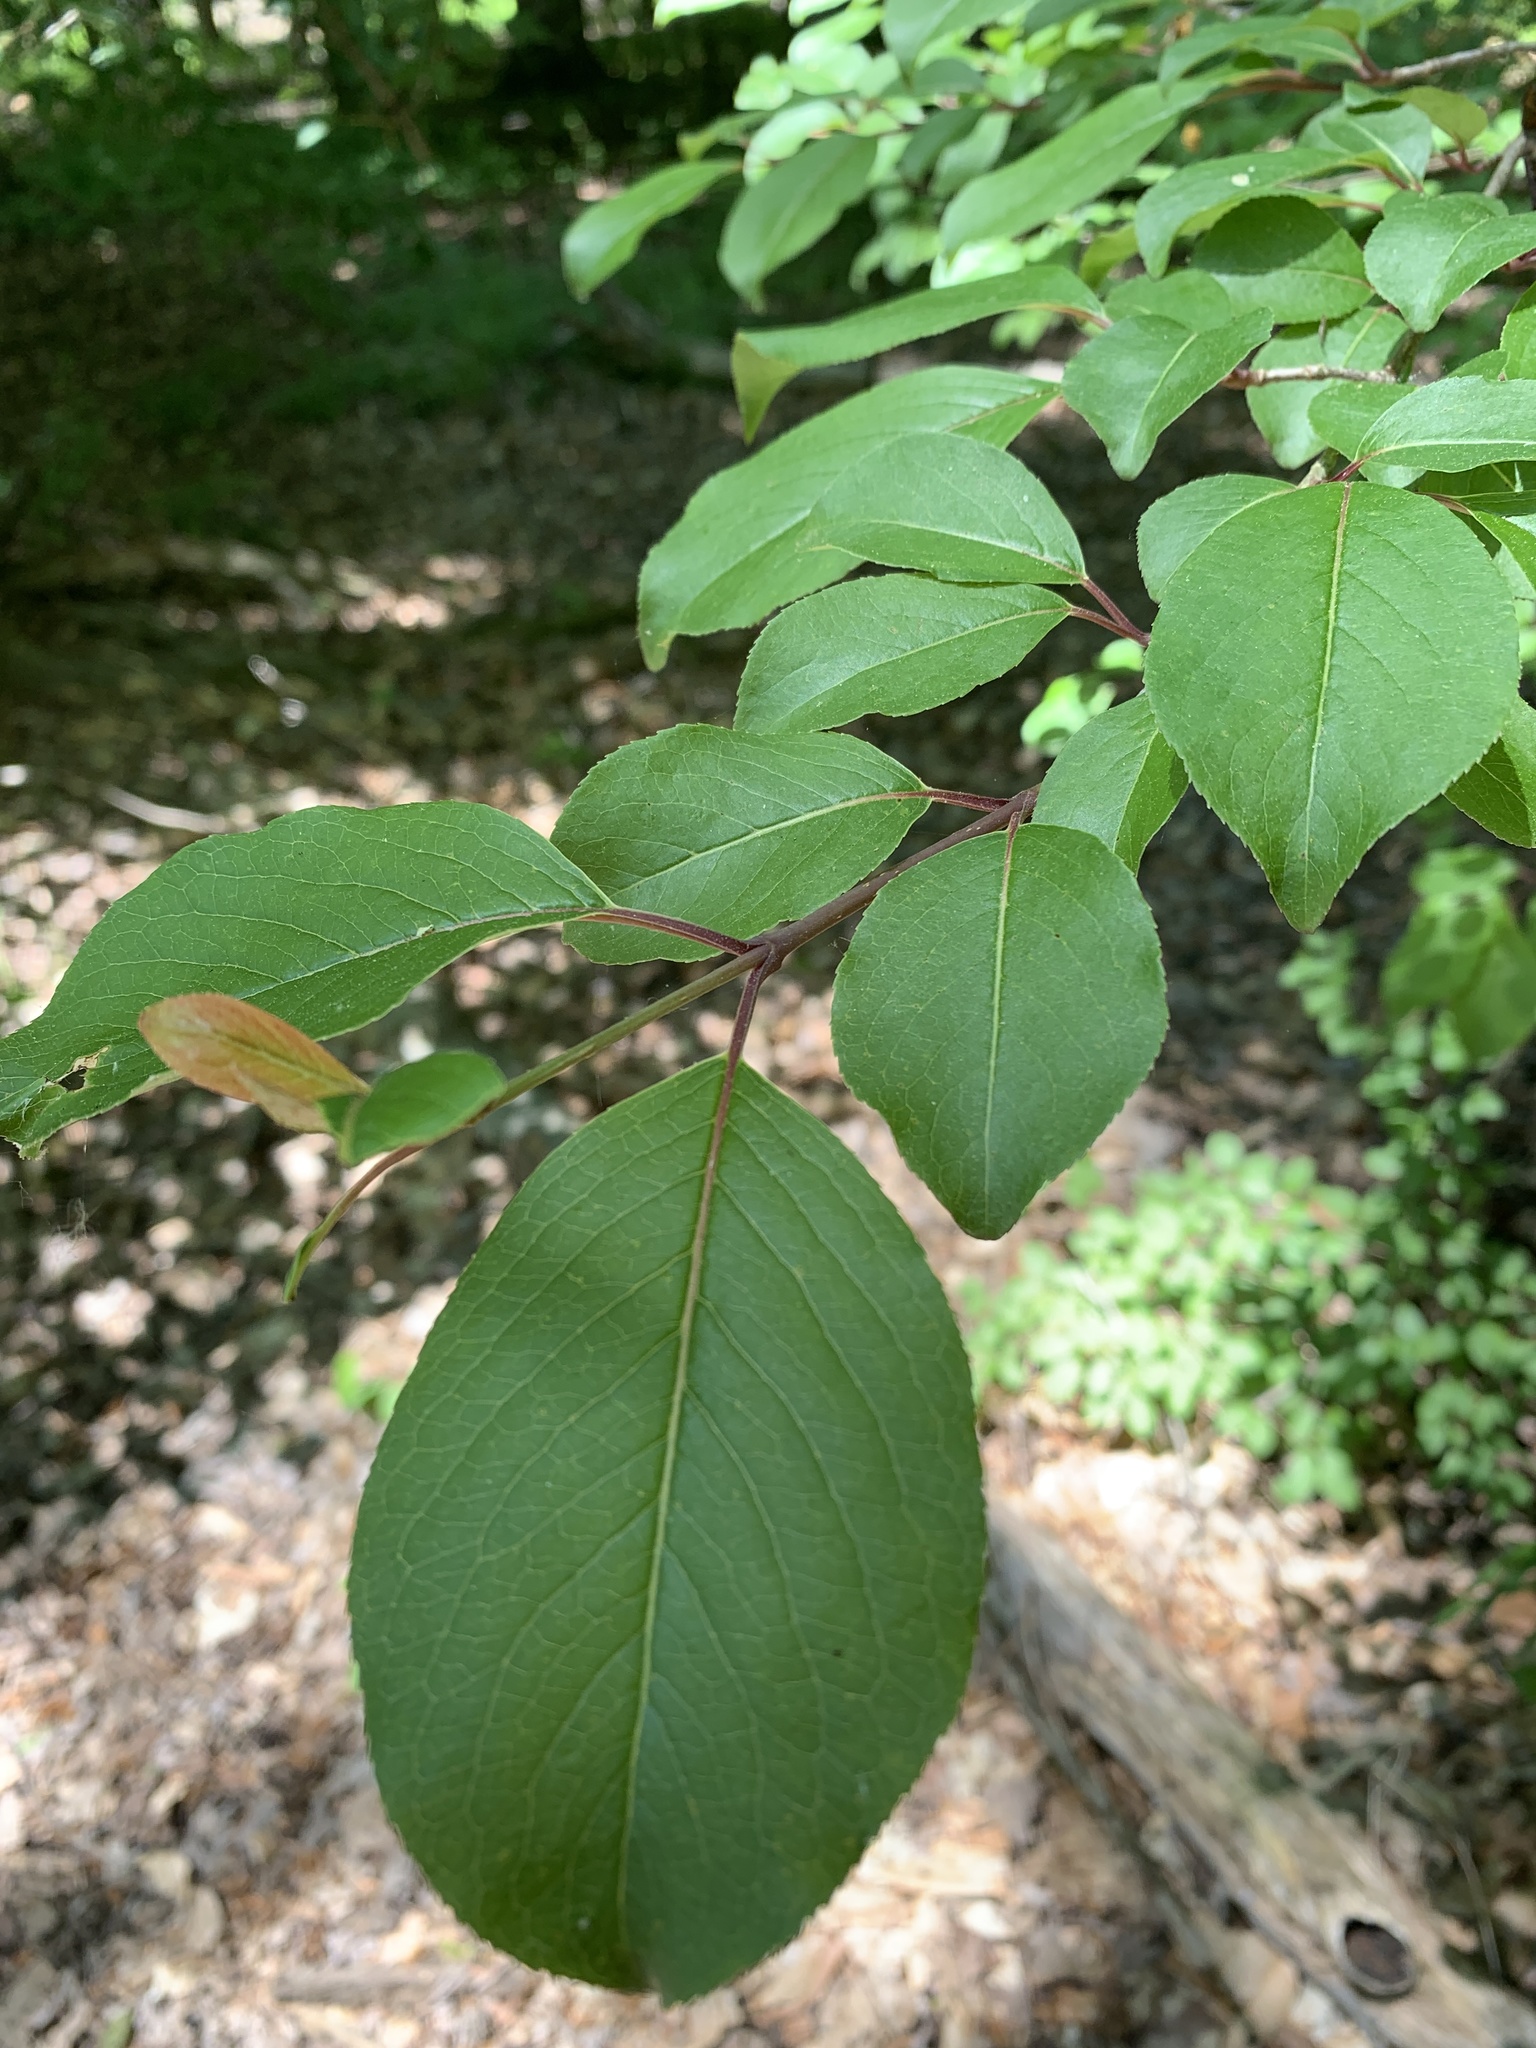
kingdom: Plantae
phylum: Tracheophyta
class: Magnoliopsida
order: Dipsacales
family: Viburnaceae
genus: Viburnum
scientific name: Viburnum prunifolium
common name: Black haw
